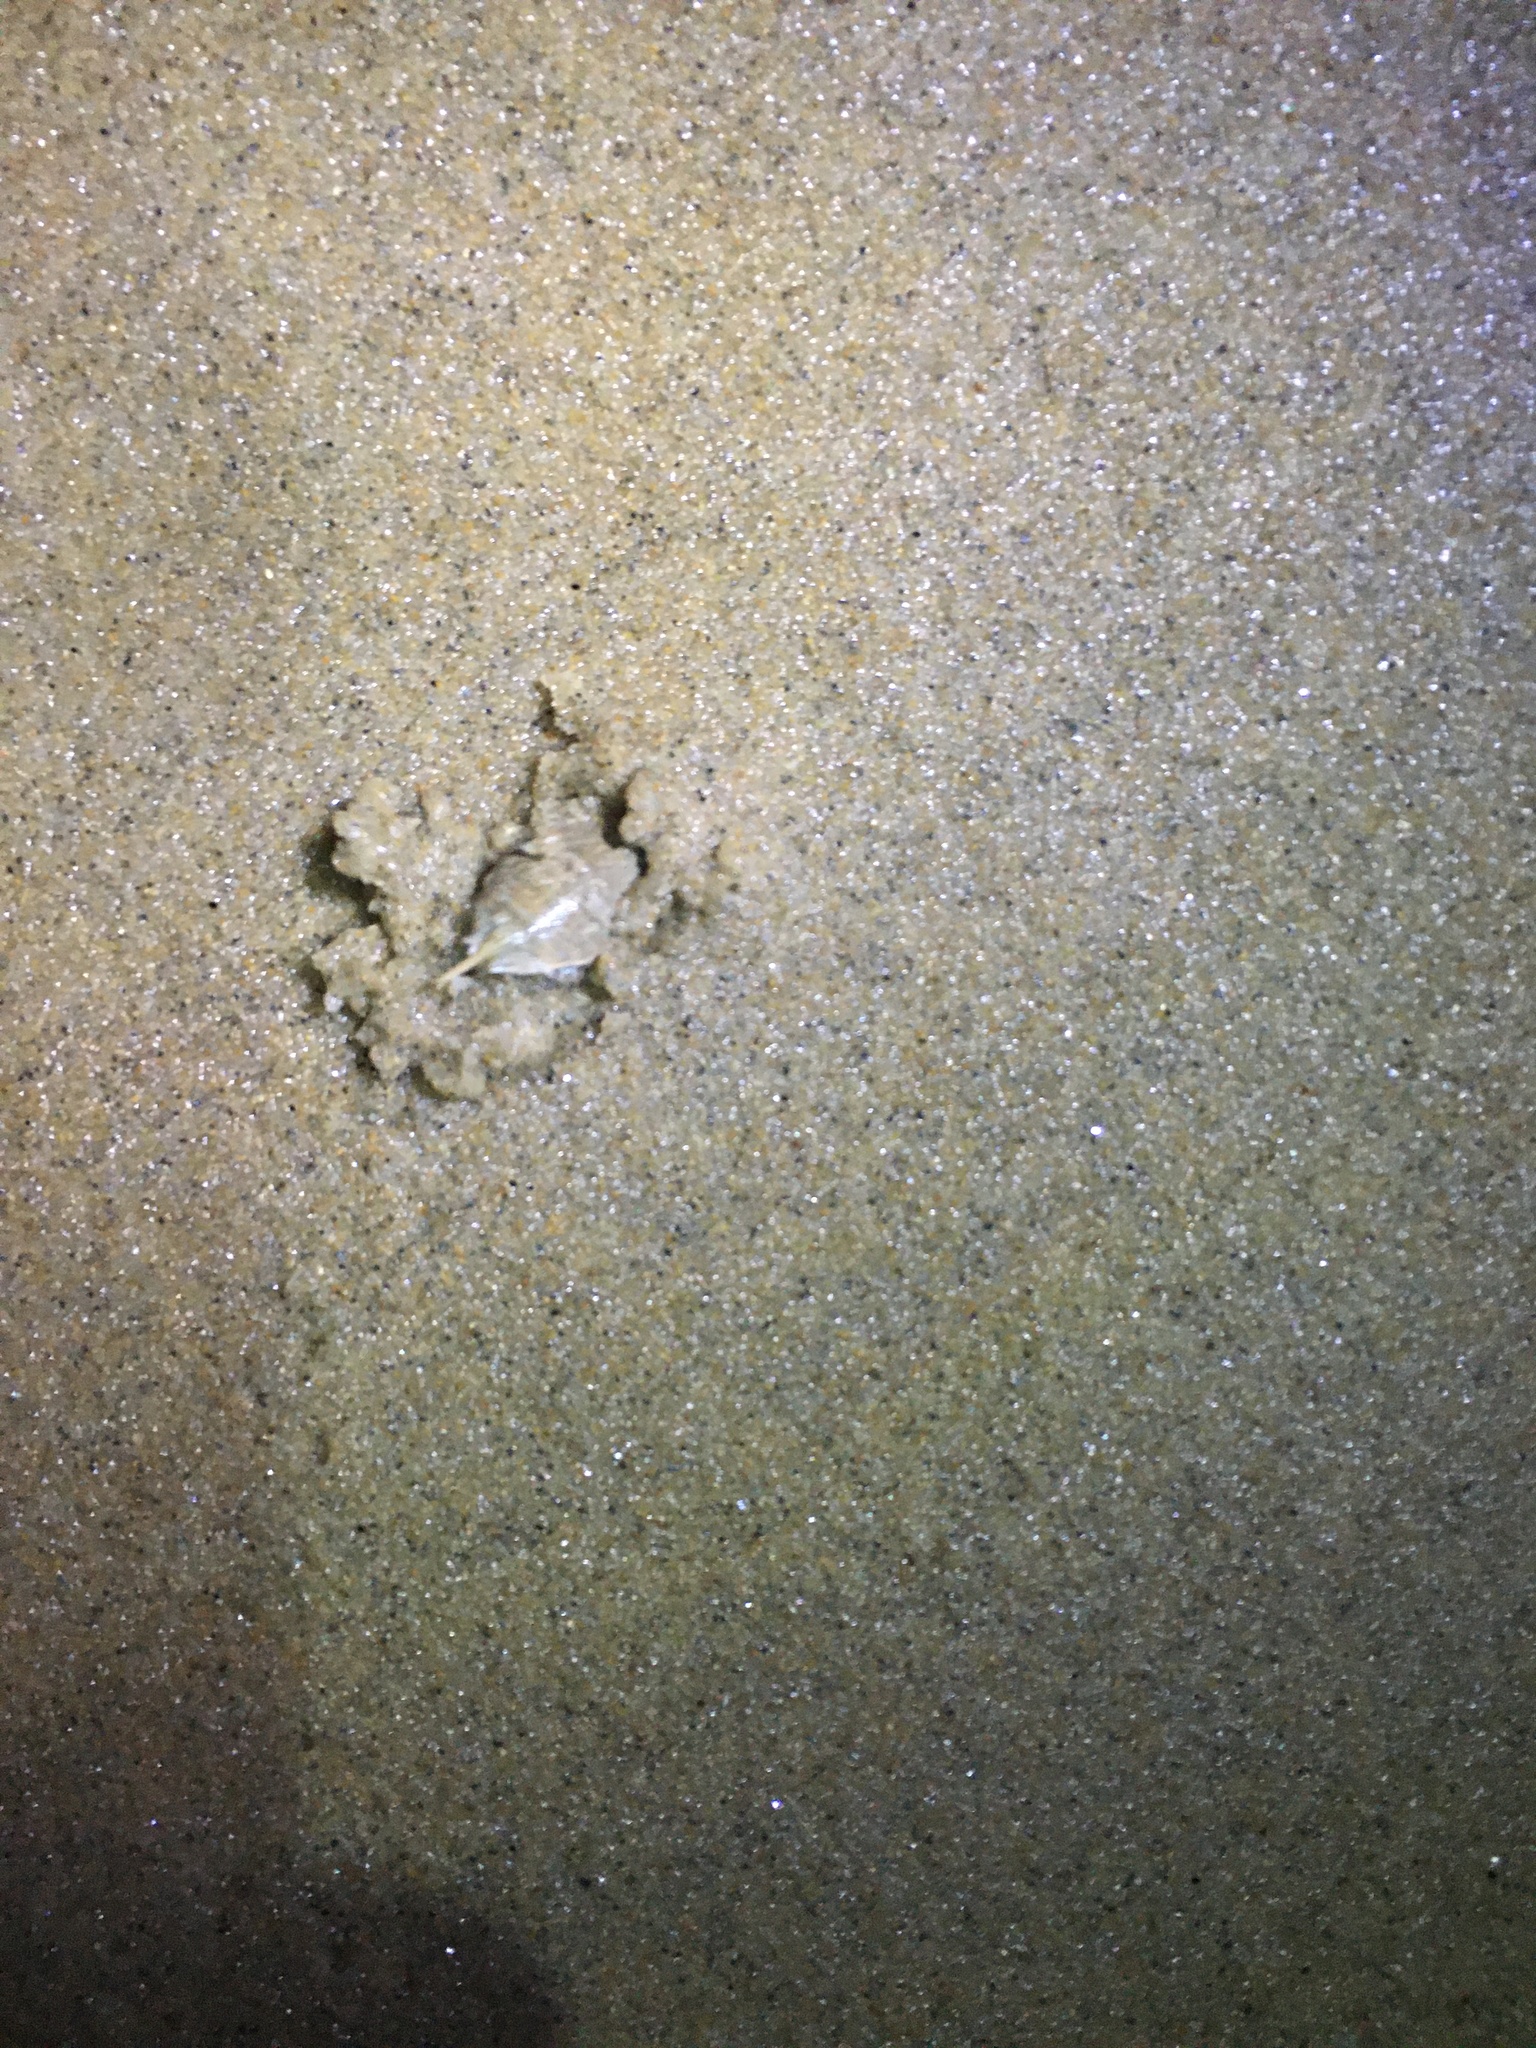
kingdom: Animalia
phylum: Arthropoda
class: Malacostraca
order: Decapoda
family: Hippidae
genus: Emerita
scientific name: Emerita talpoida
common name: Atlantic sand crab
